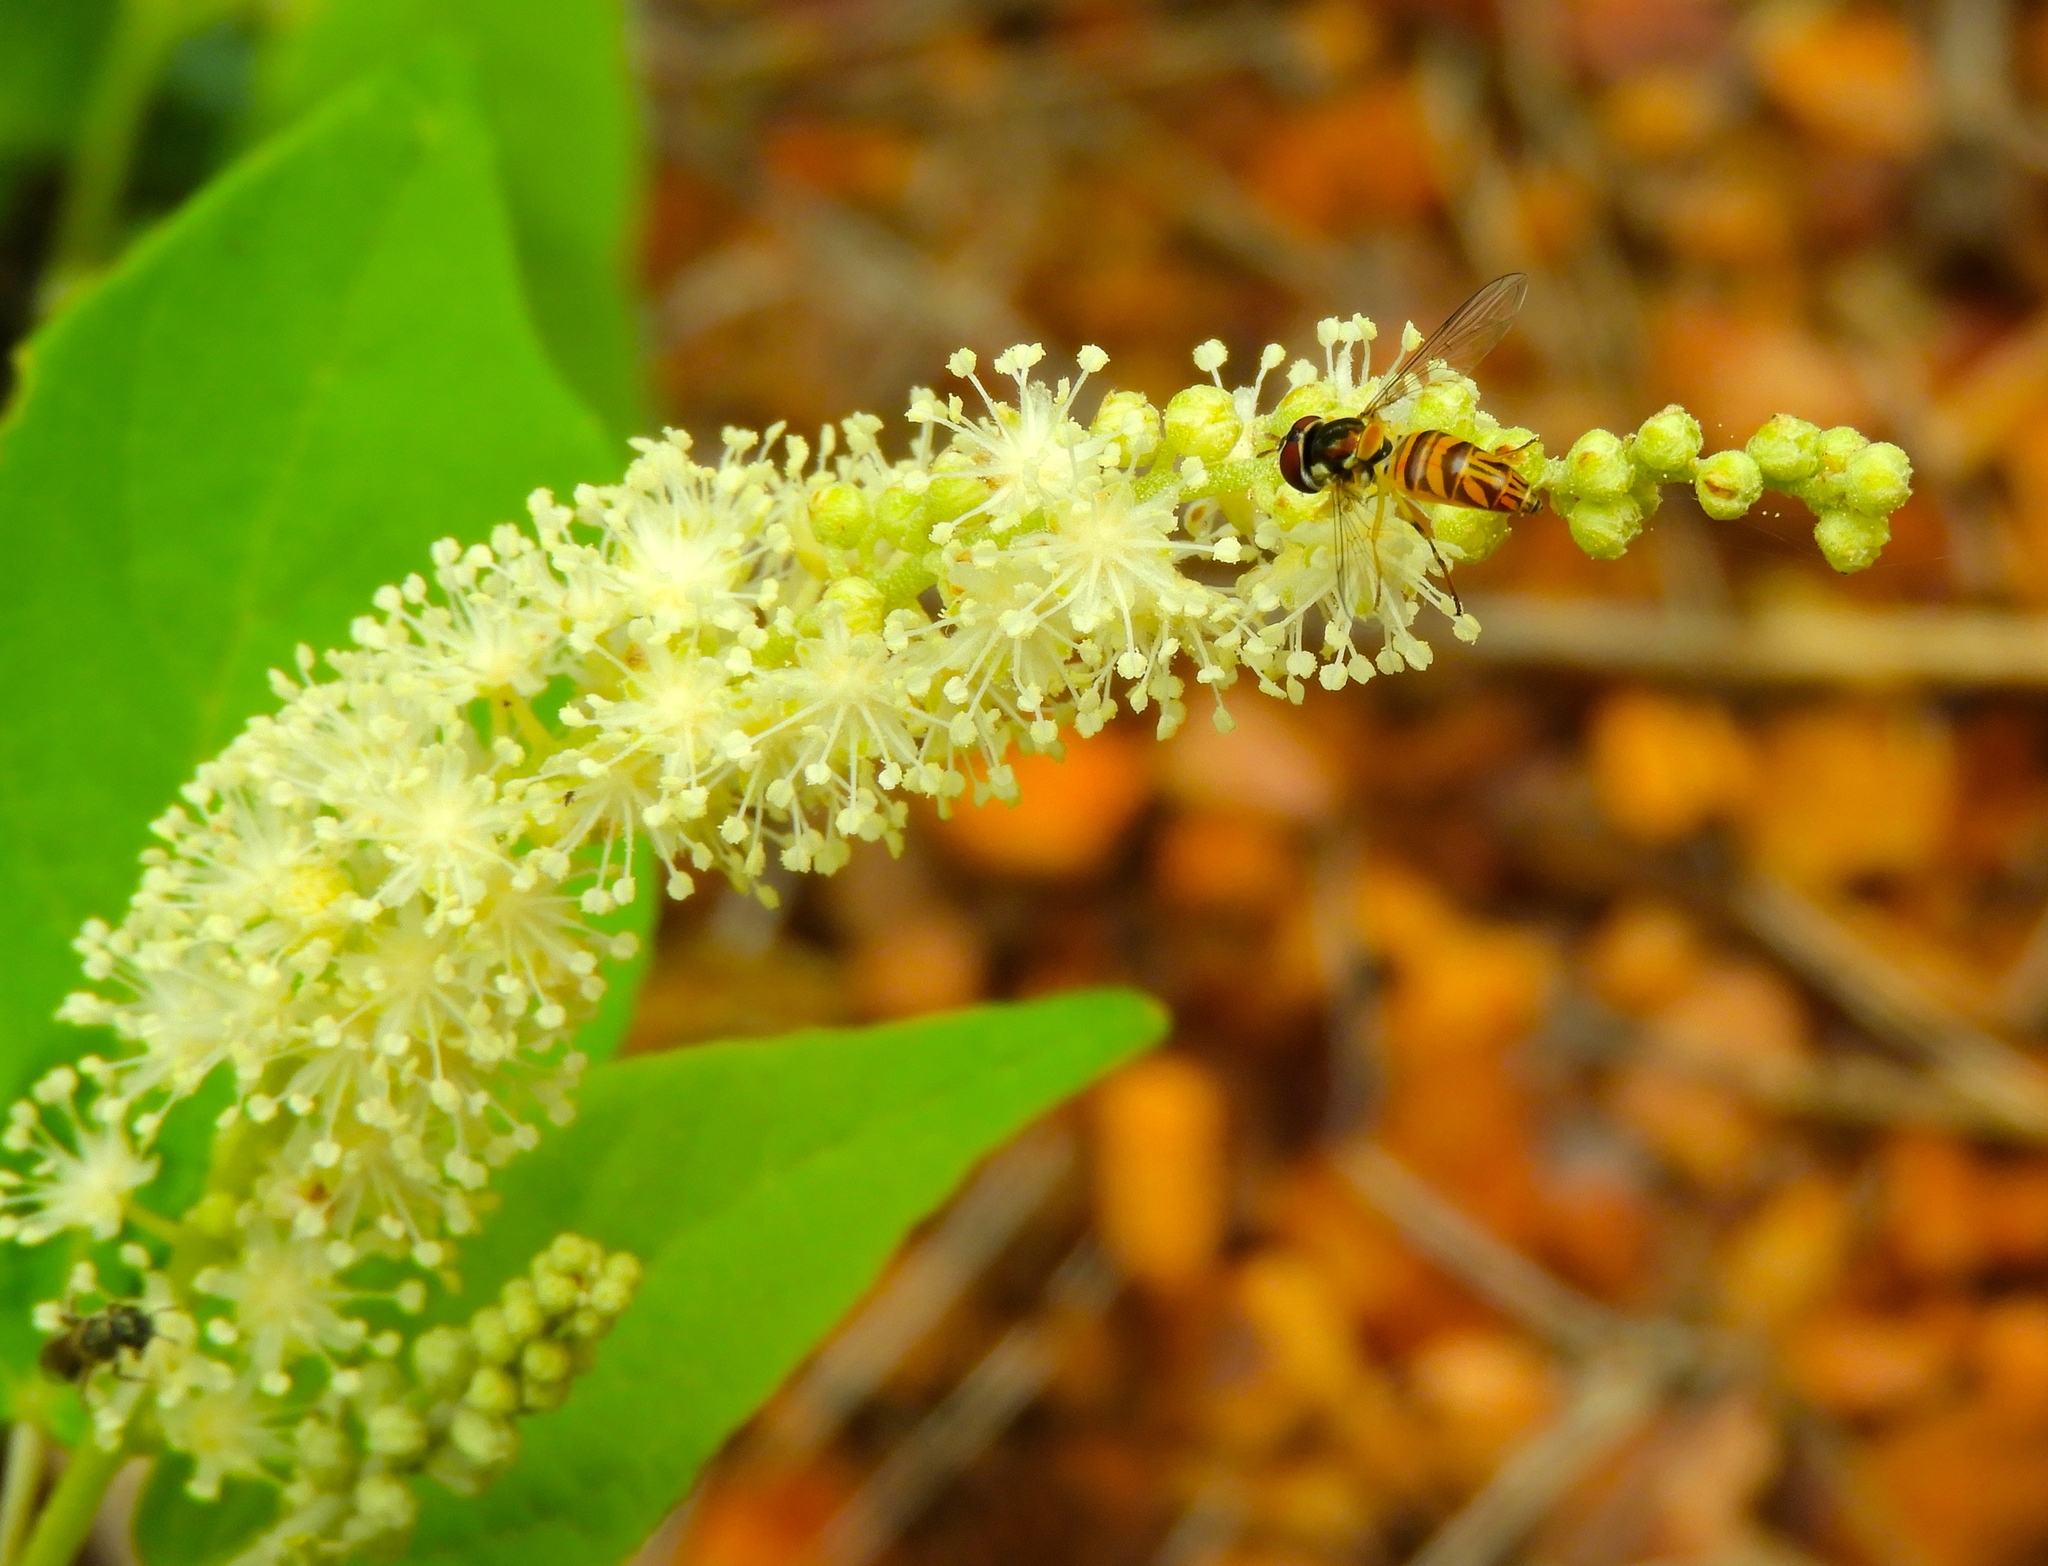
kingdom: Plantae
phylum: Tracheophyta
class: Magnoliopsida
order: Malpighiales
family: Euphorbiaceae
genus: Croton
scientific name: Croton culiacanensis
